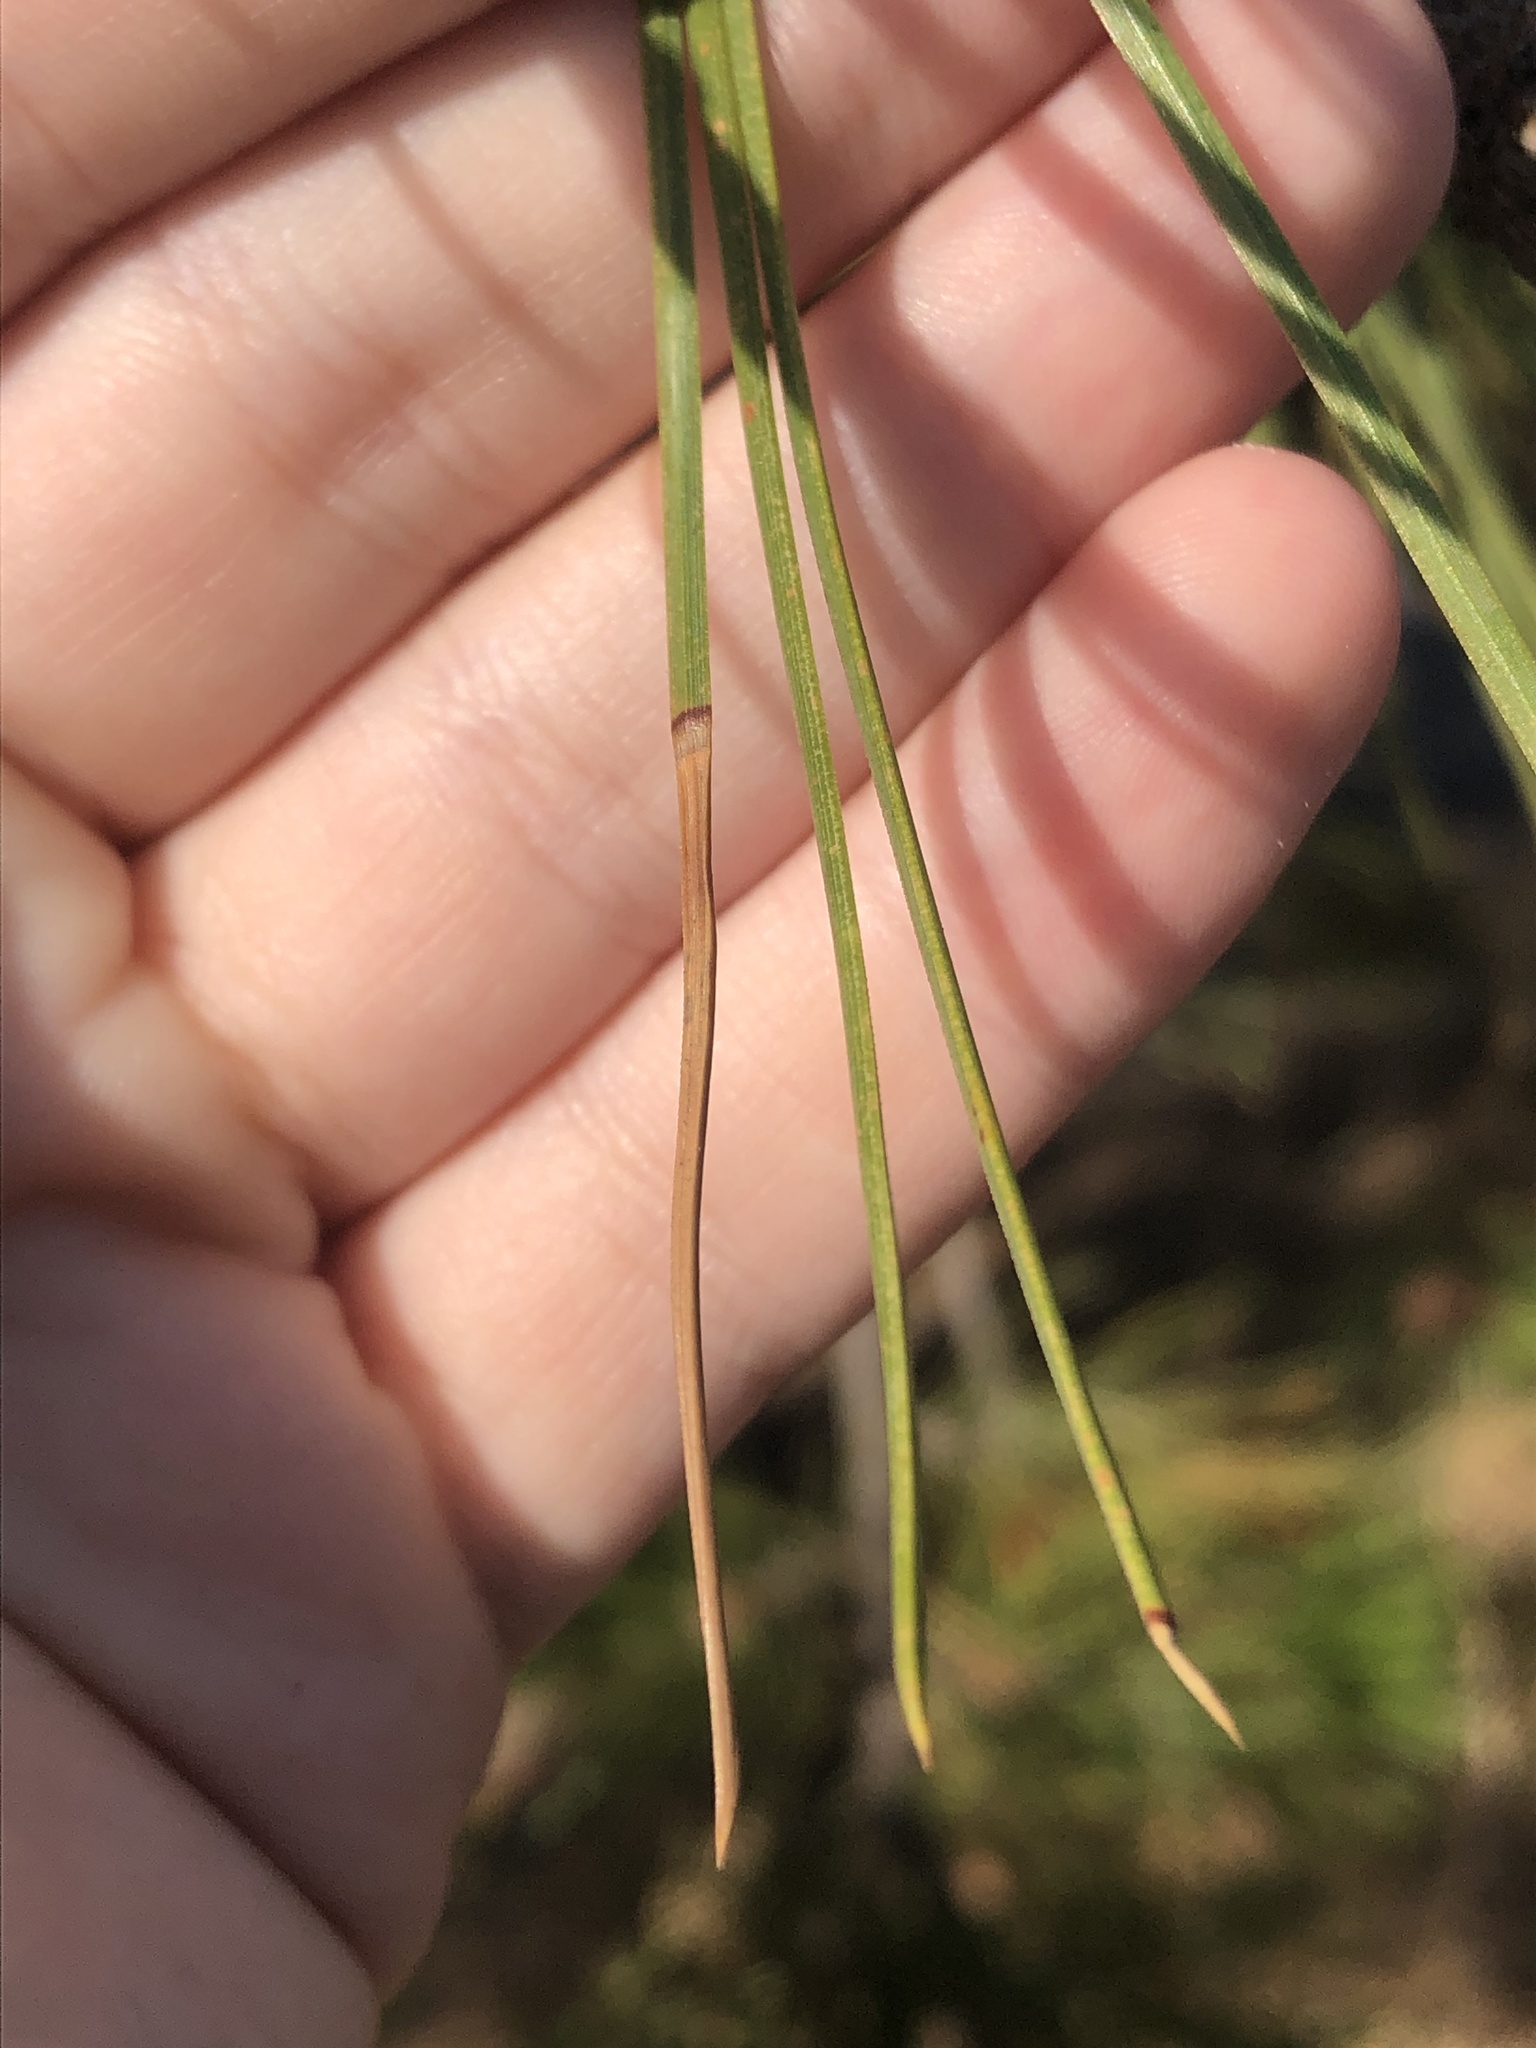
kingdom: Plantae
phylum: Tracheophyta
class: Pinopsida
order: Pinales
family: Pinaceae
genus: Pinus
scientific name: Pinus ponderosa
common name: Western yellow-pine
